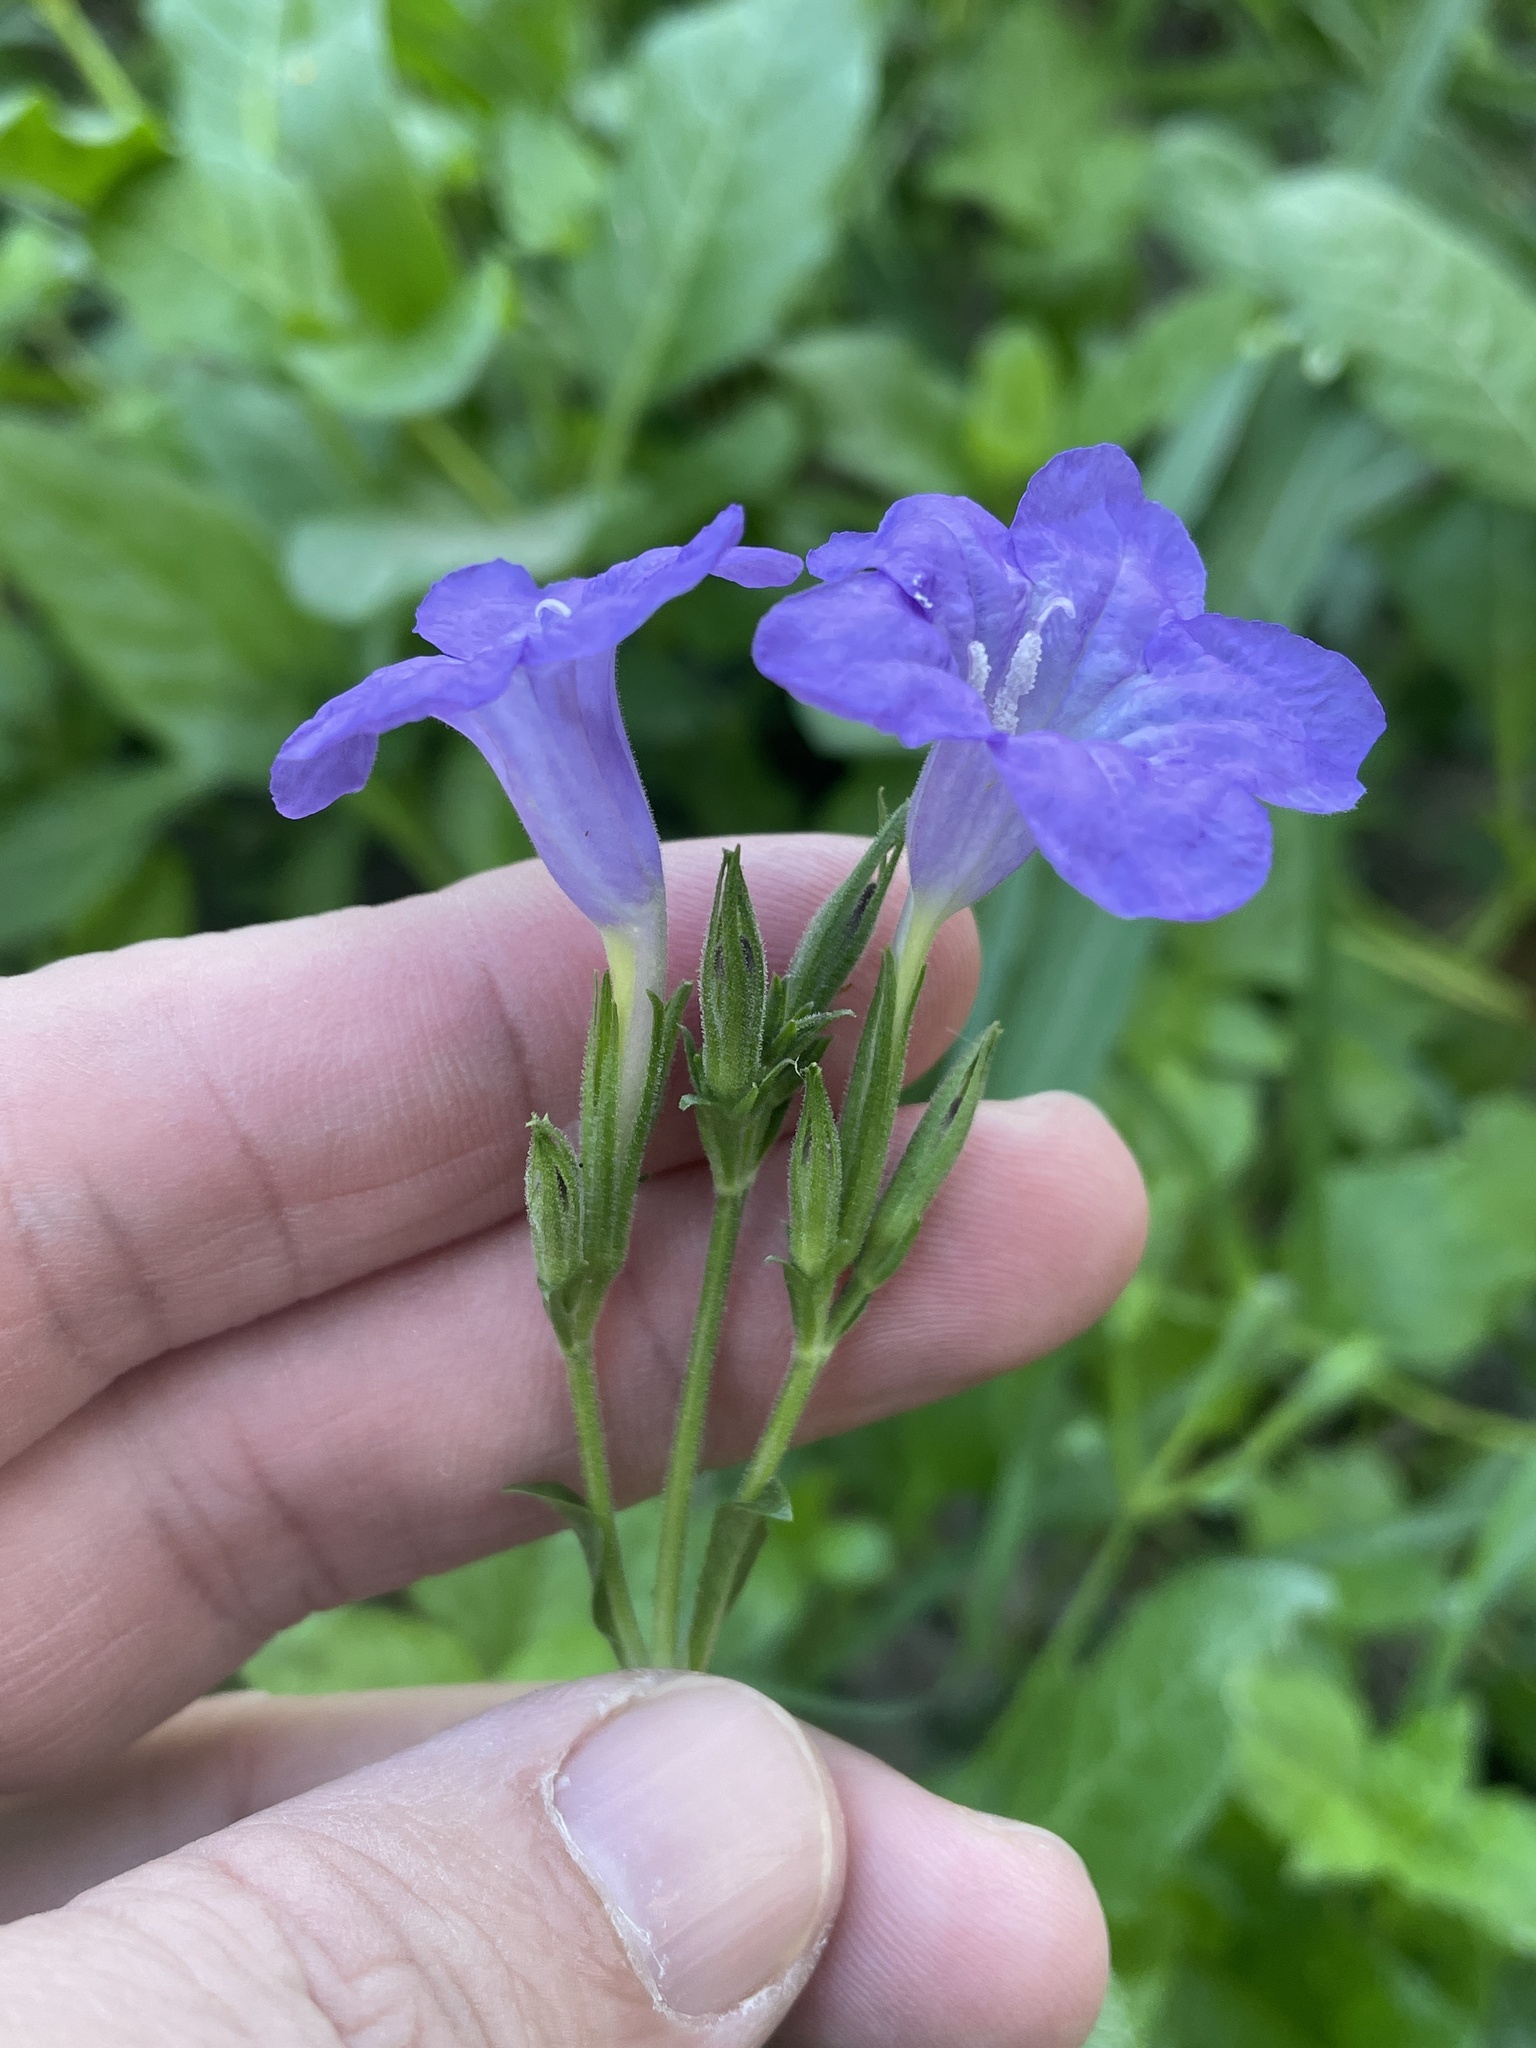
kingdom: Plantae
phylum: Tracheophyta
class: Magnoliopsida
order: Lamiales
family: Acanthaceae
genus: Ruellia
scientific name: Ruellia ciliatiflora
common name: Hairyflower wild petunia
